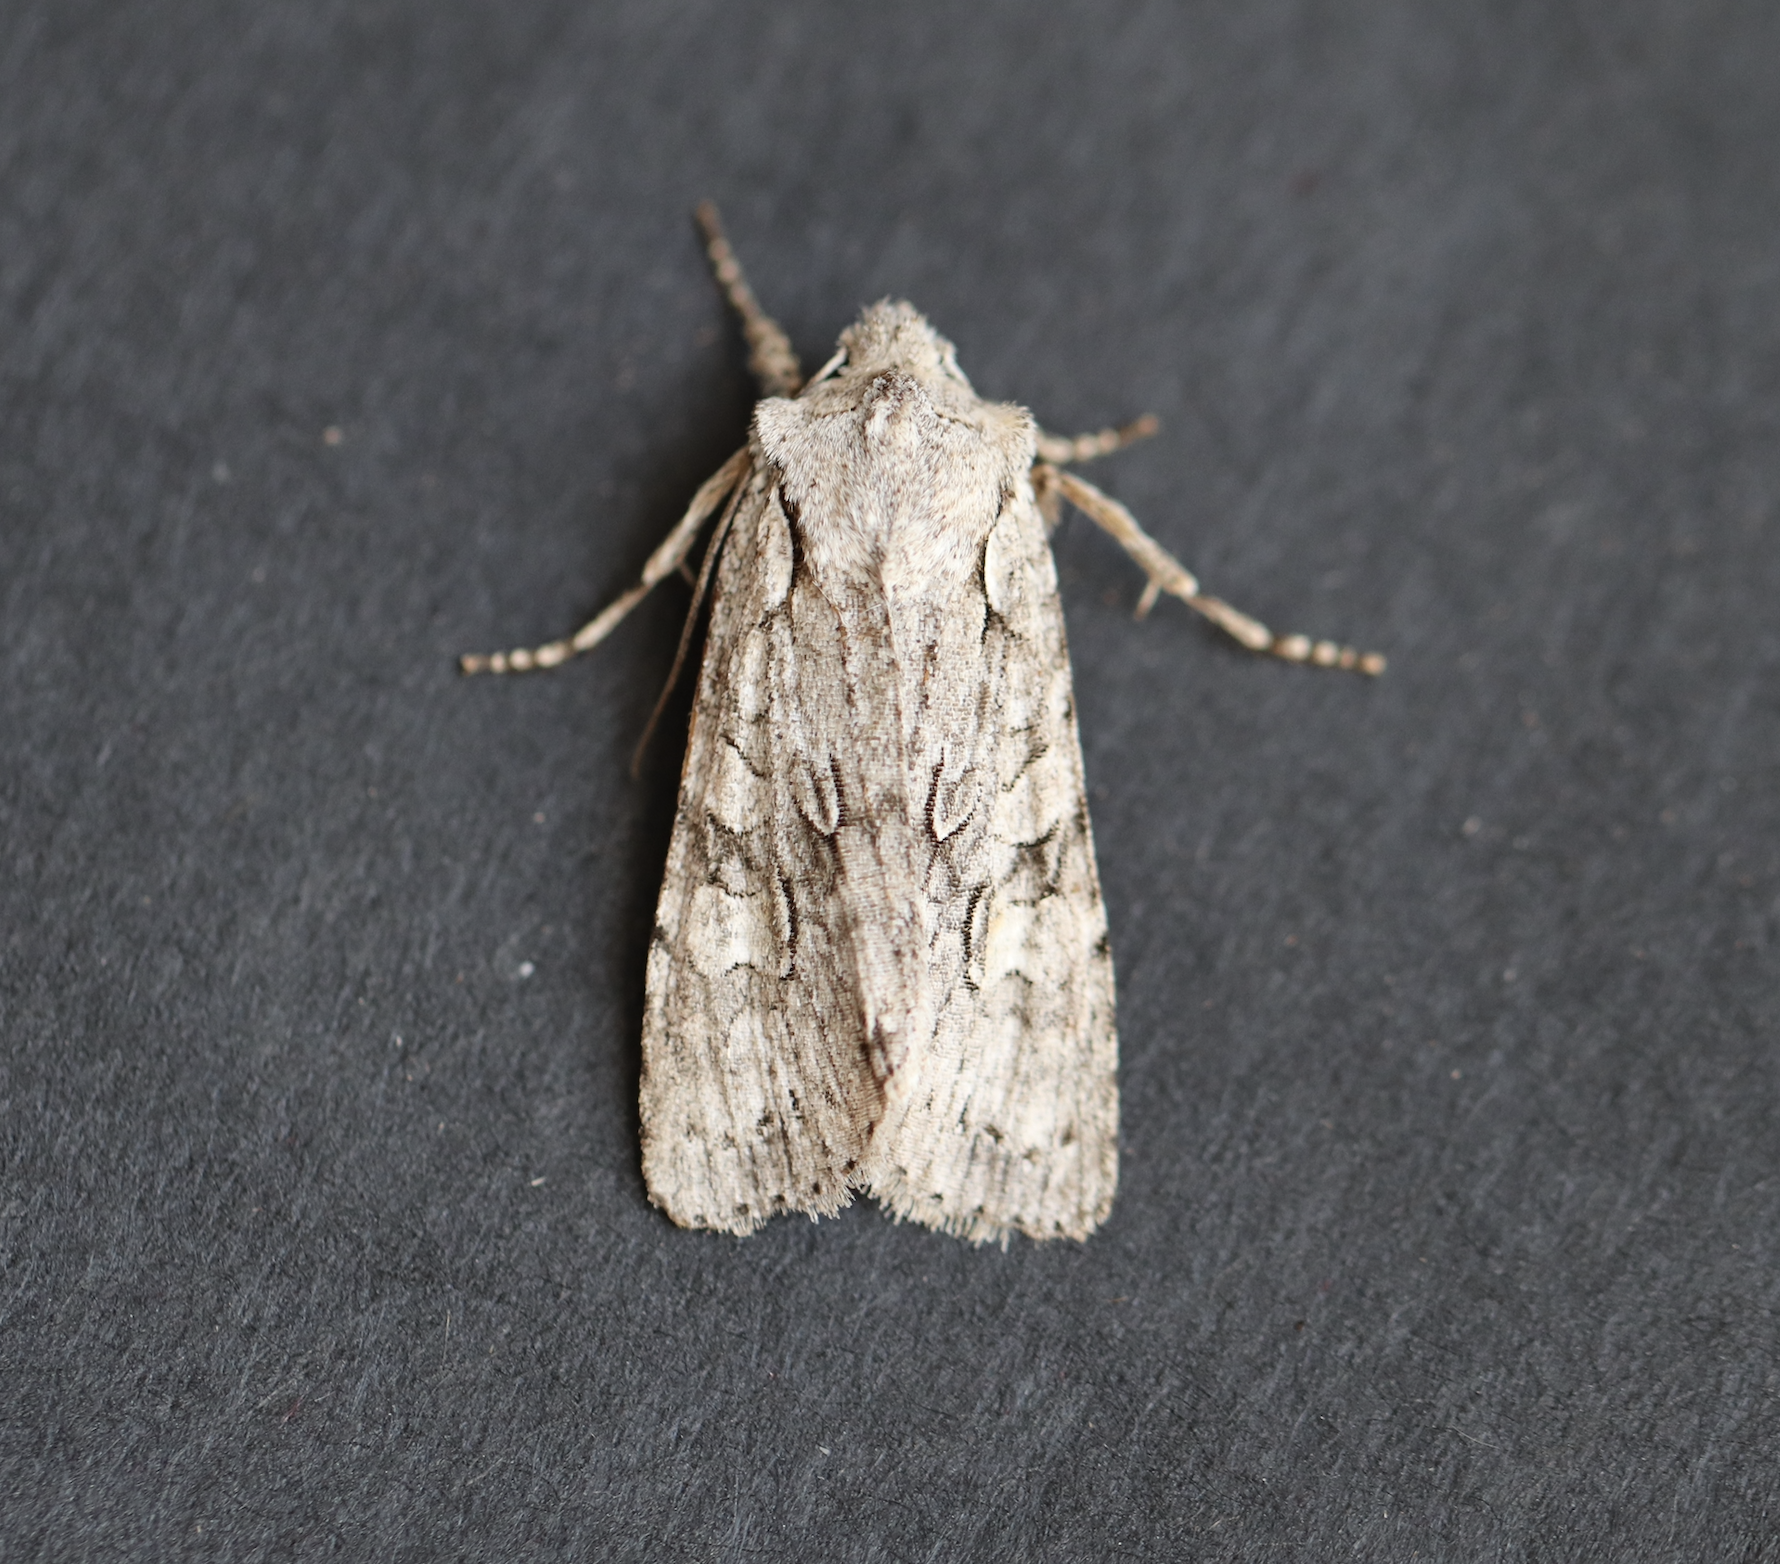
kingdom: Animalia
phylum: Arthropoda
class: Insecta
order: Lepidoptera
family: Noctuidae
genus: Lithophane
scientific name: Lithophane ornitopus
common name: Grey shoulder-knot
